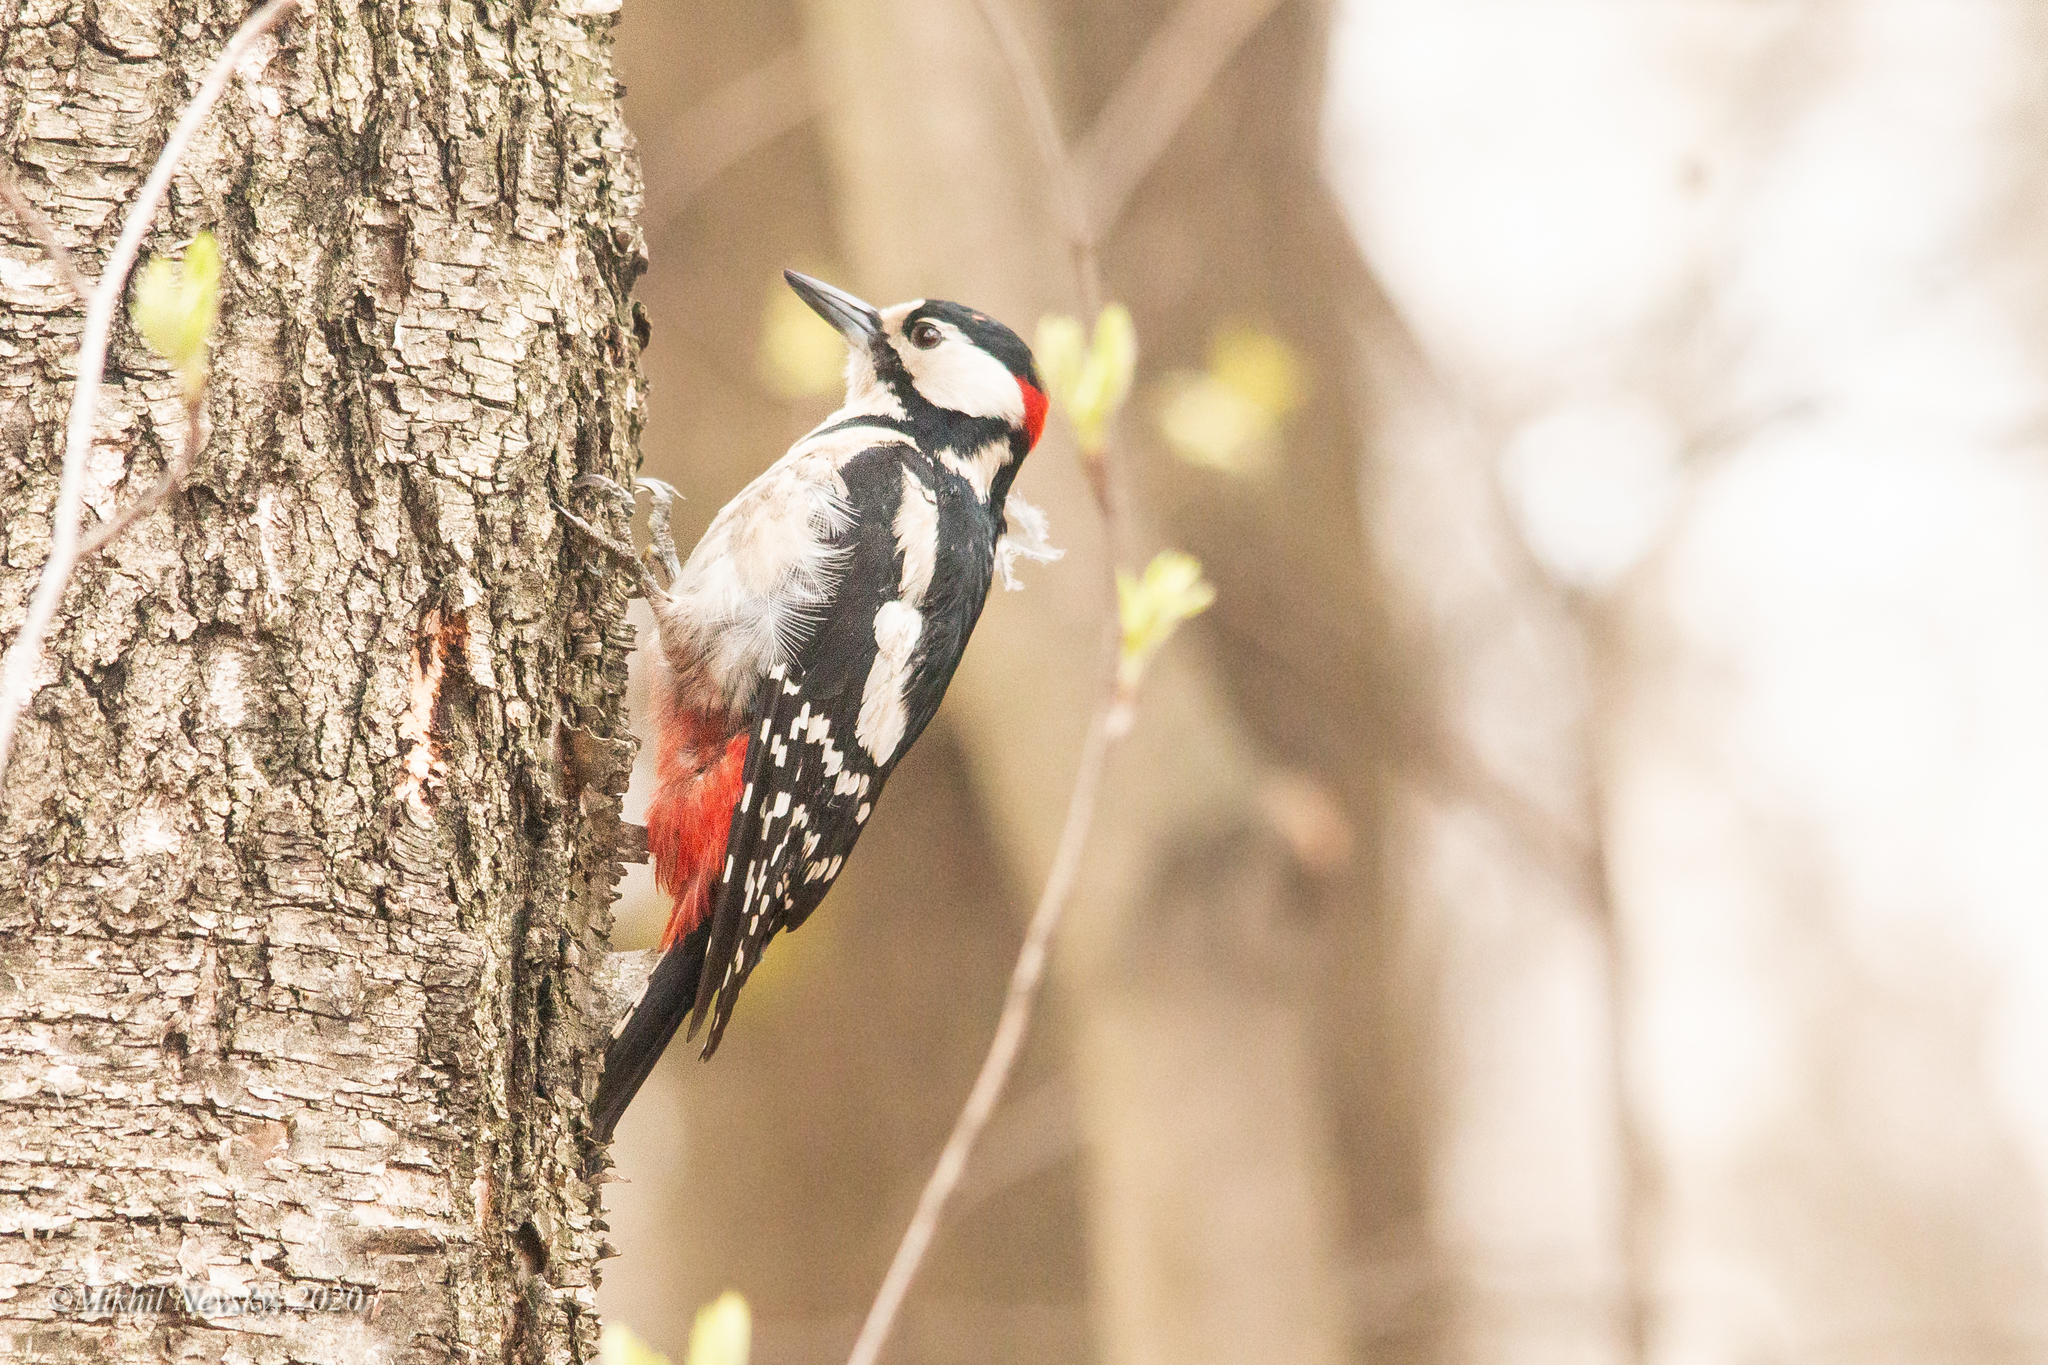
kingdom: Animalia
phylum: Chordata
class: Aves
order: Piciformes
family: Picidae
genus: Dendrocopos
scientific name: Dendrocopos major
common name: Great spotted woodpecker
